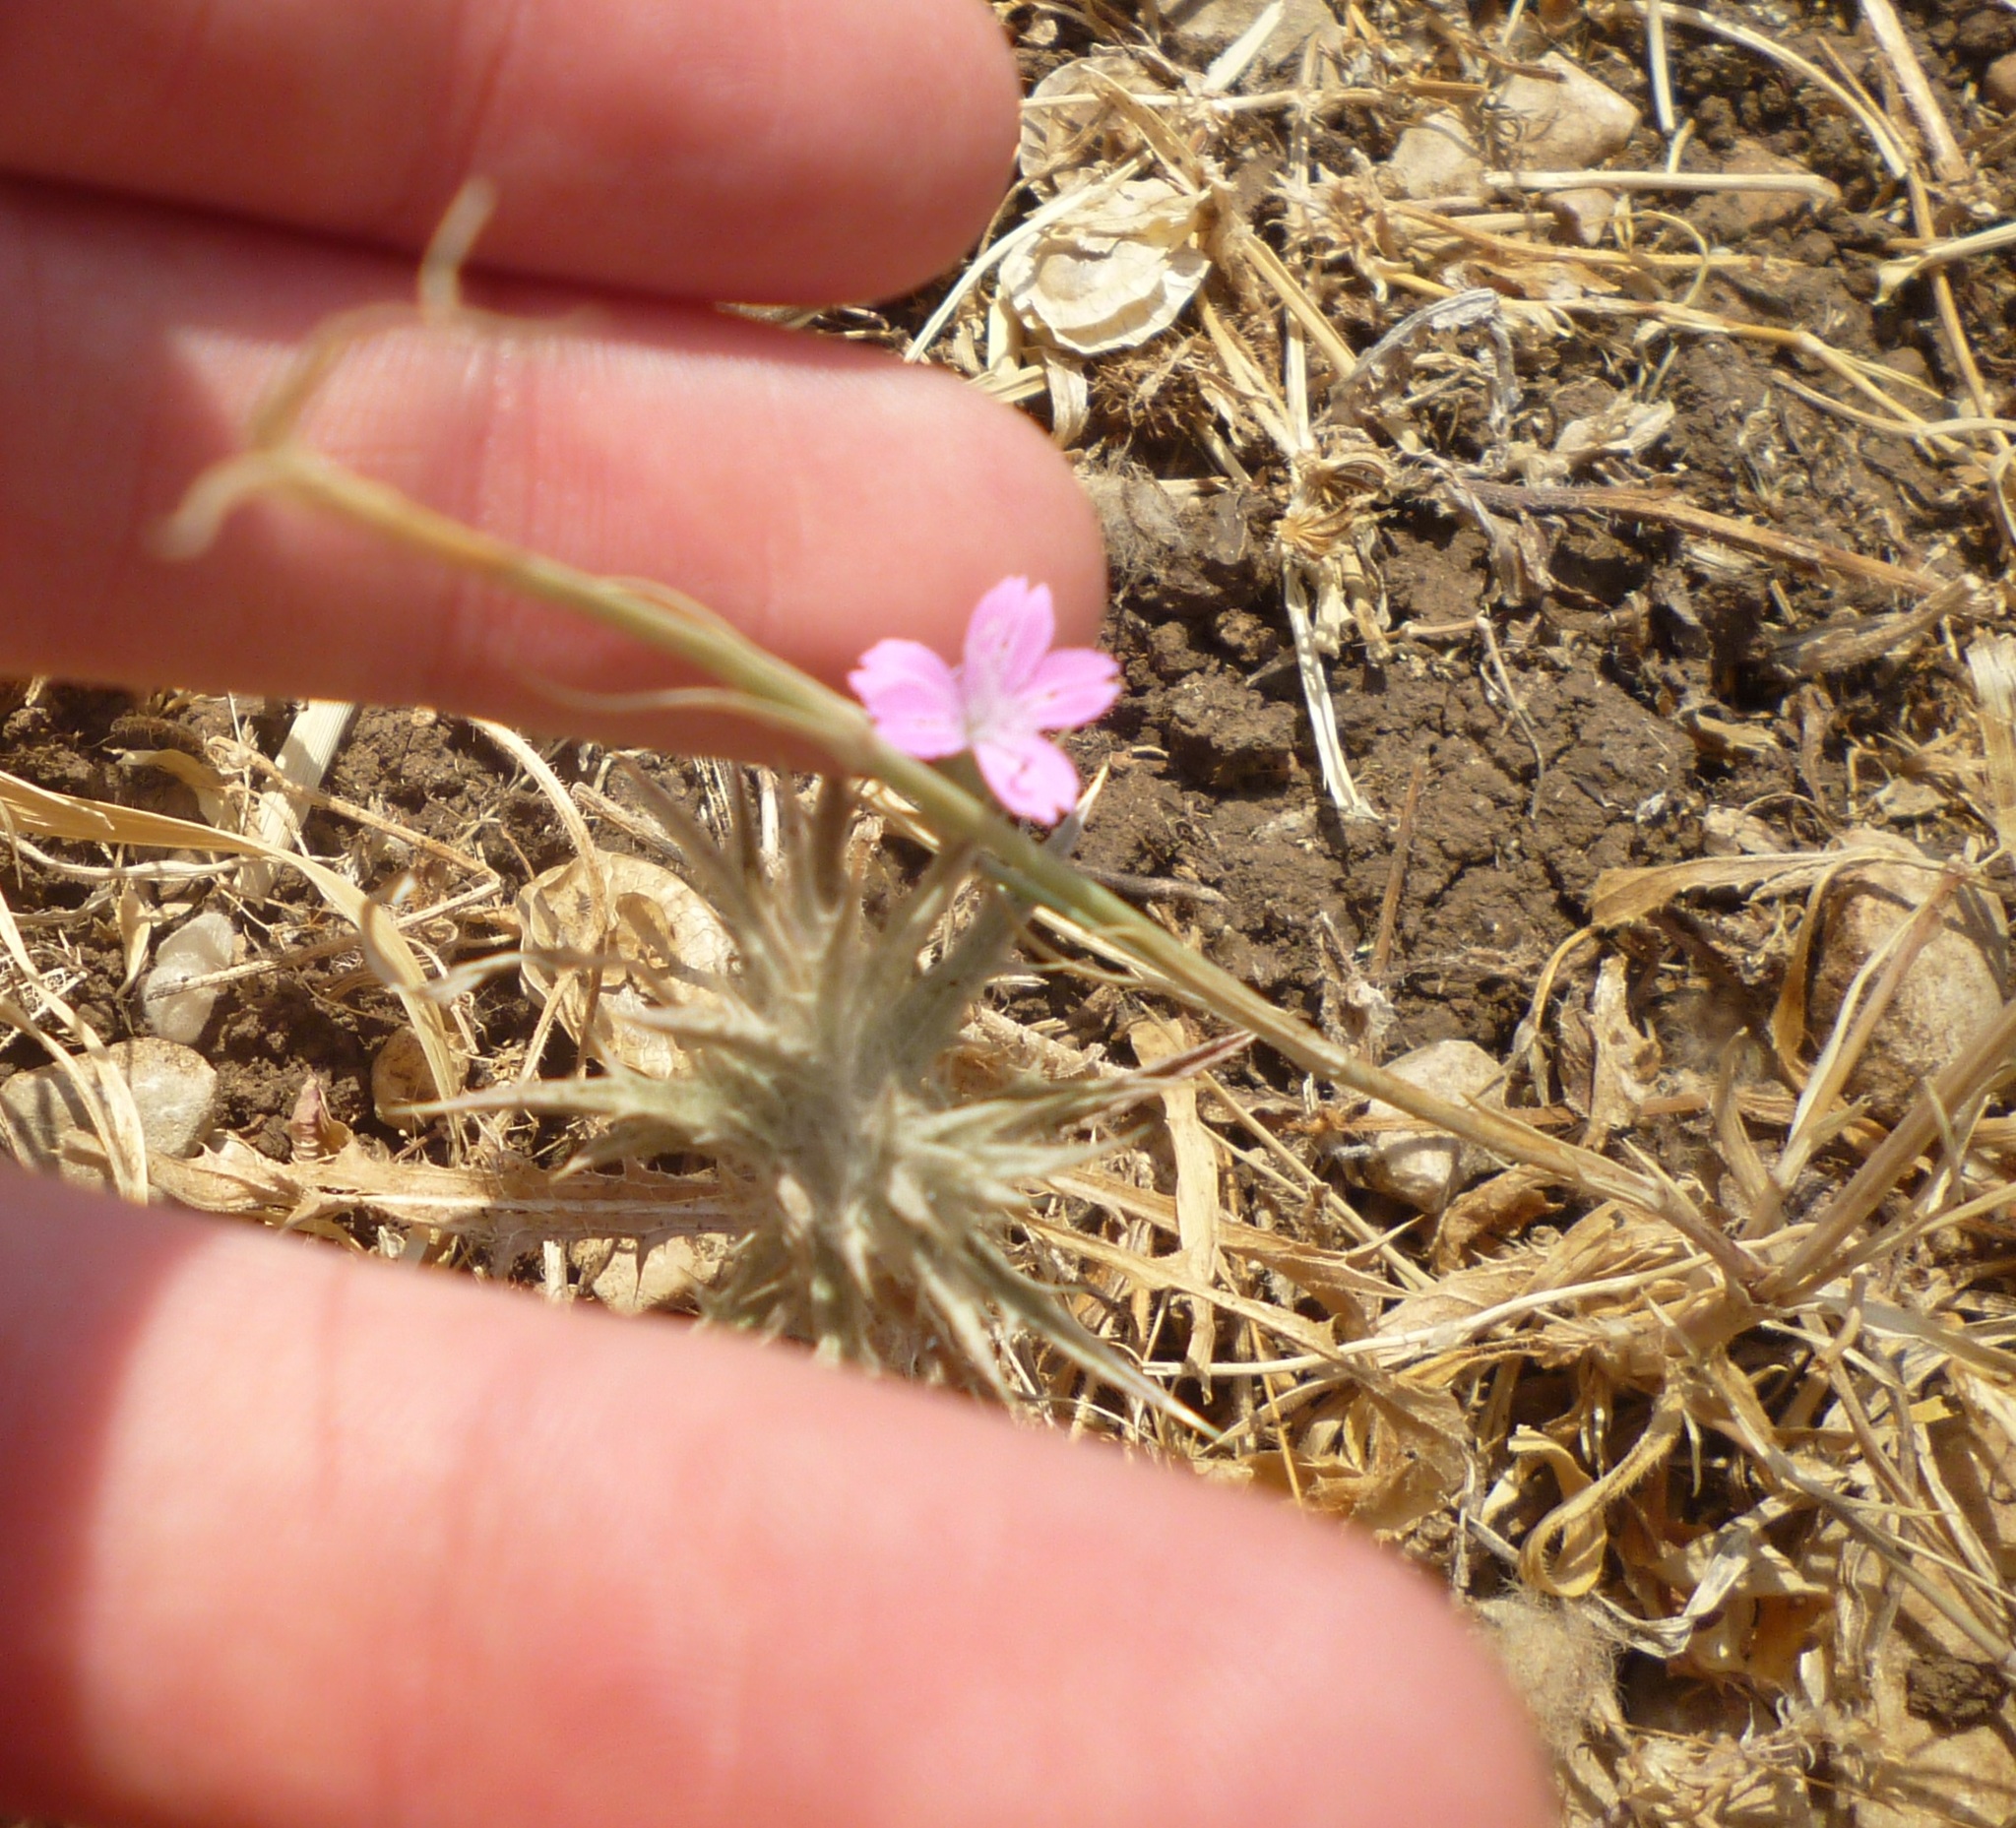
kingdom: Plantae
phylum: Tracheophyta
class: Magnoliopsida
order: Caryophyllales
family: Caryophyllaceae
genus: Dianthus
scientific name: Dianthus strictus
